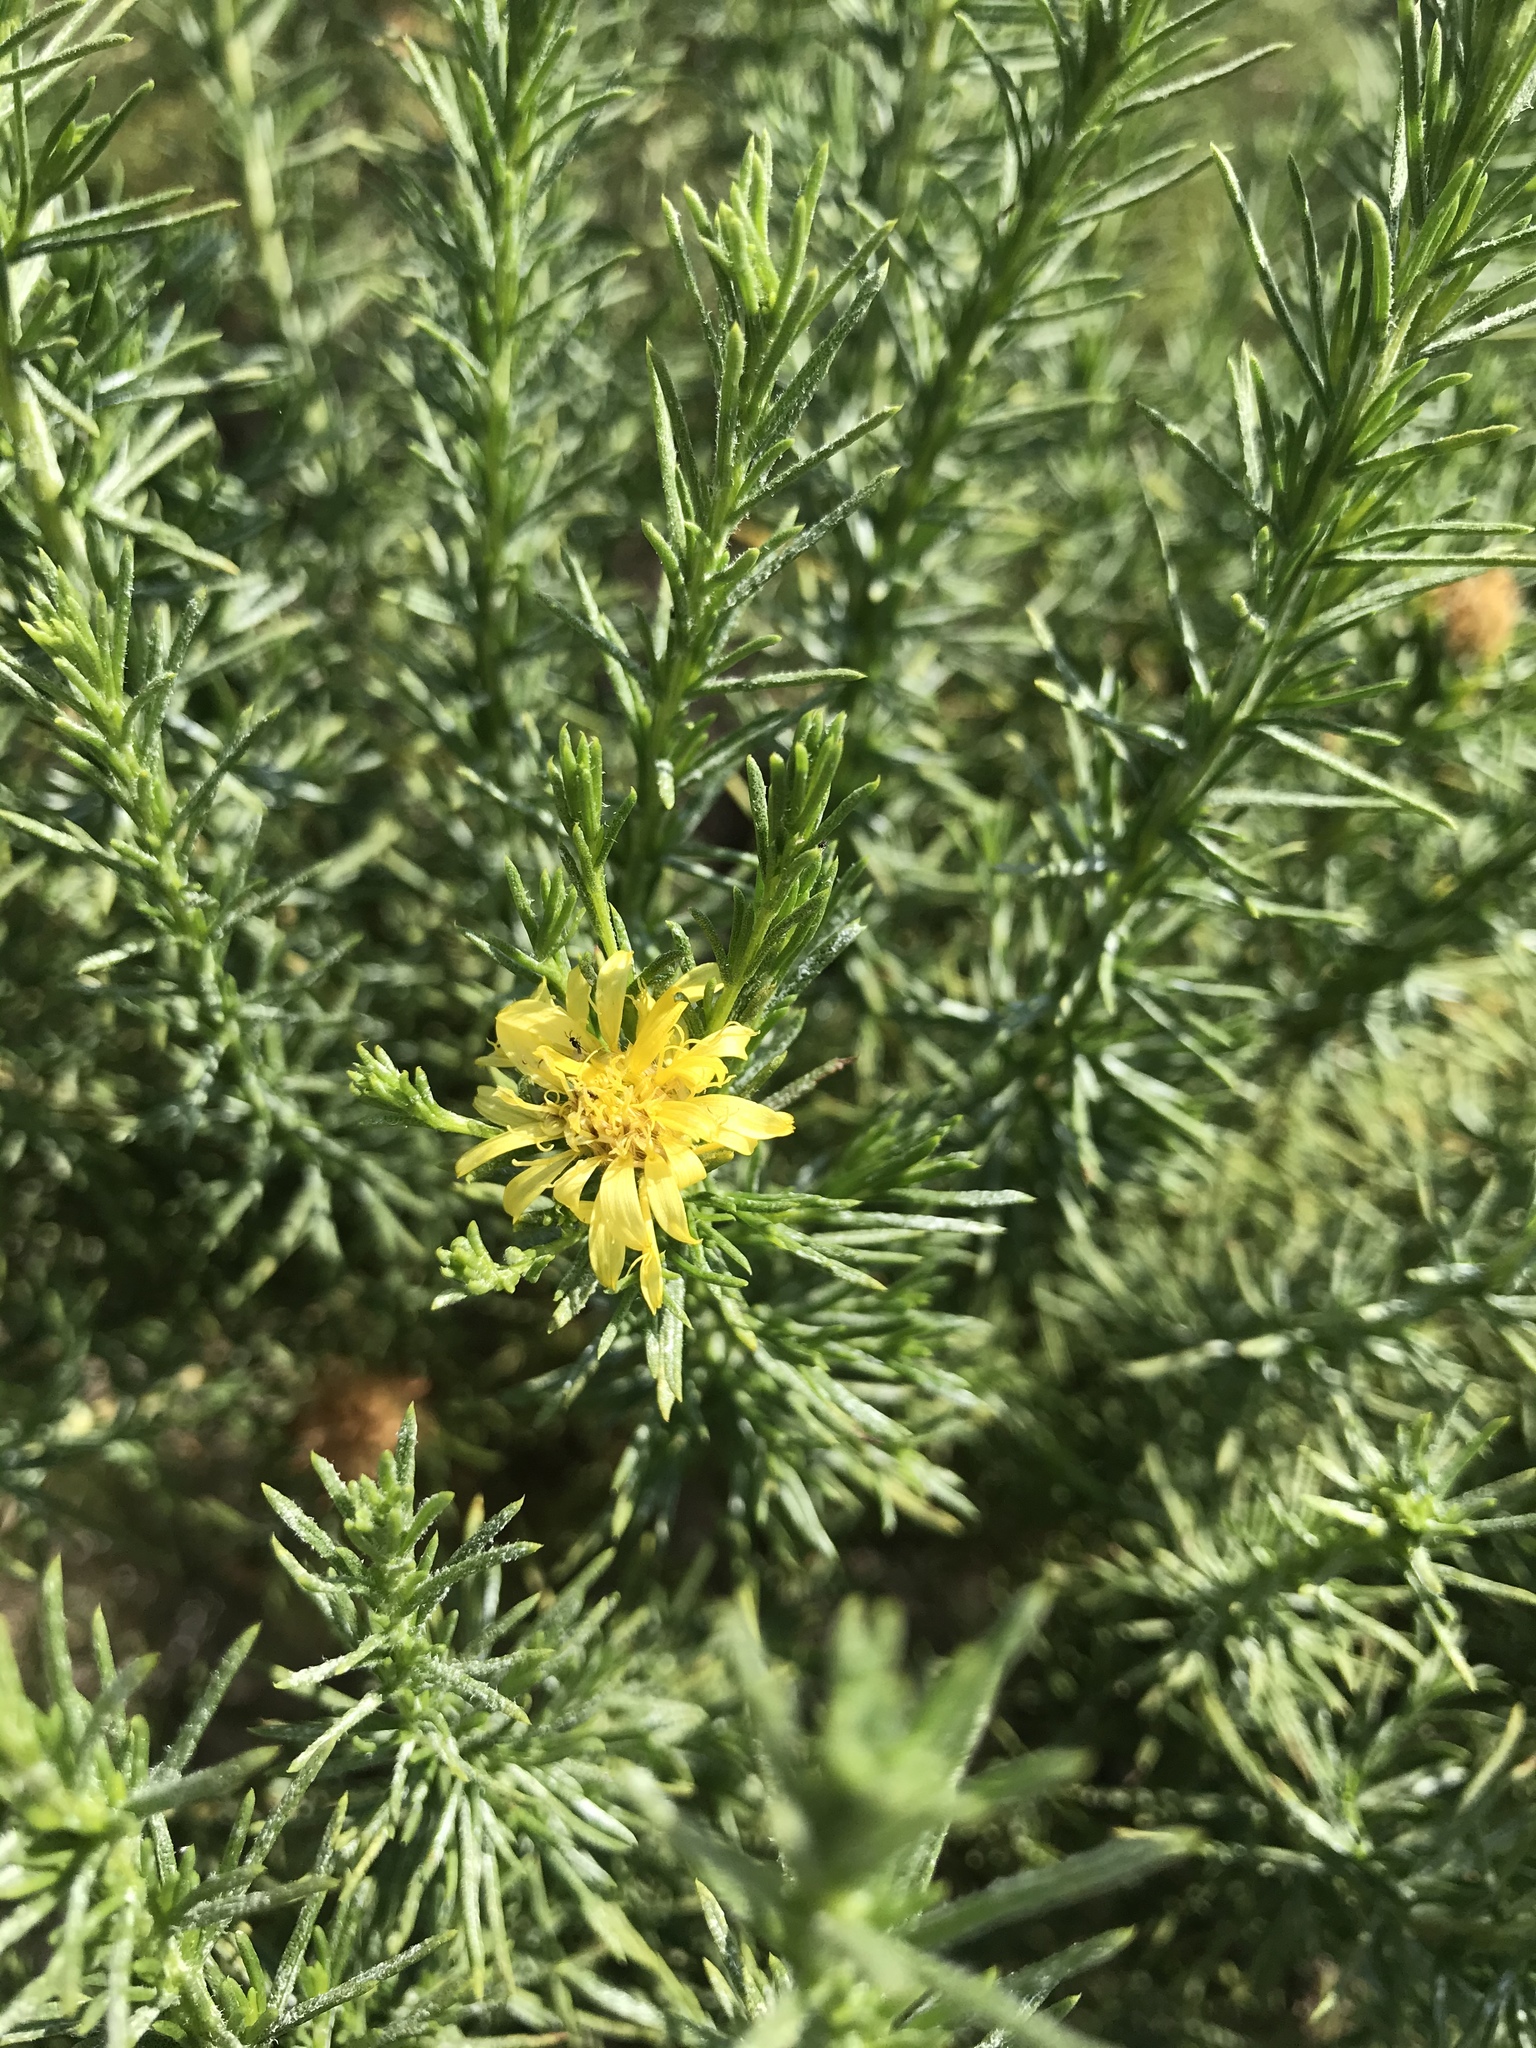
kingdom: Plantae
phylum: Tracheophyta
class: Magnoliopsida
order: Asterales
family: Asteraceae
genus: Ericameria
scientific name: Ericameria pinifolia
